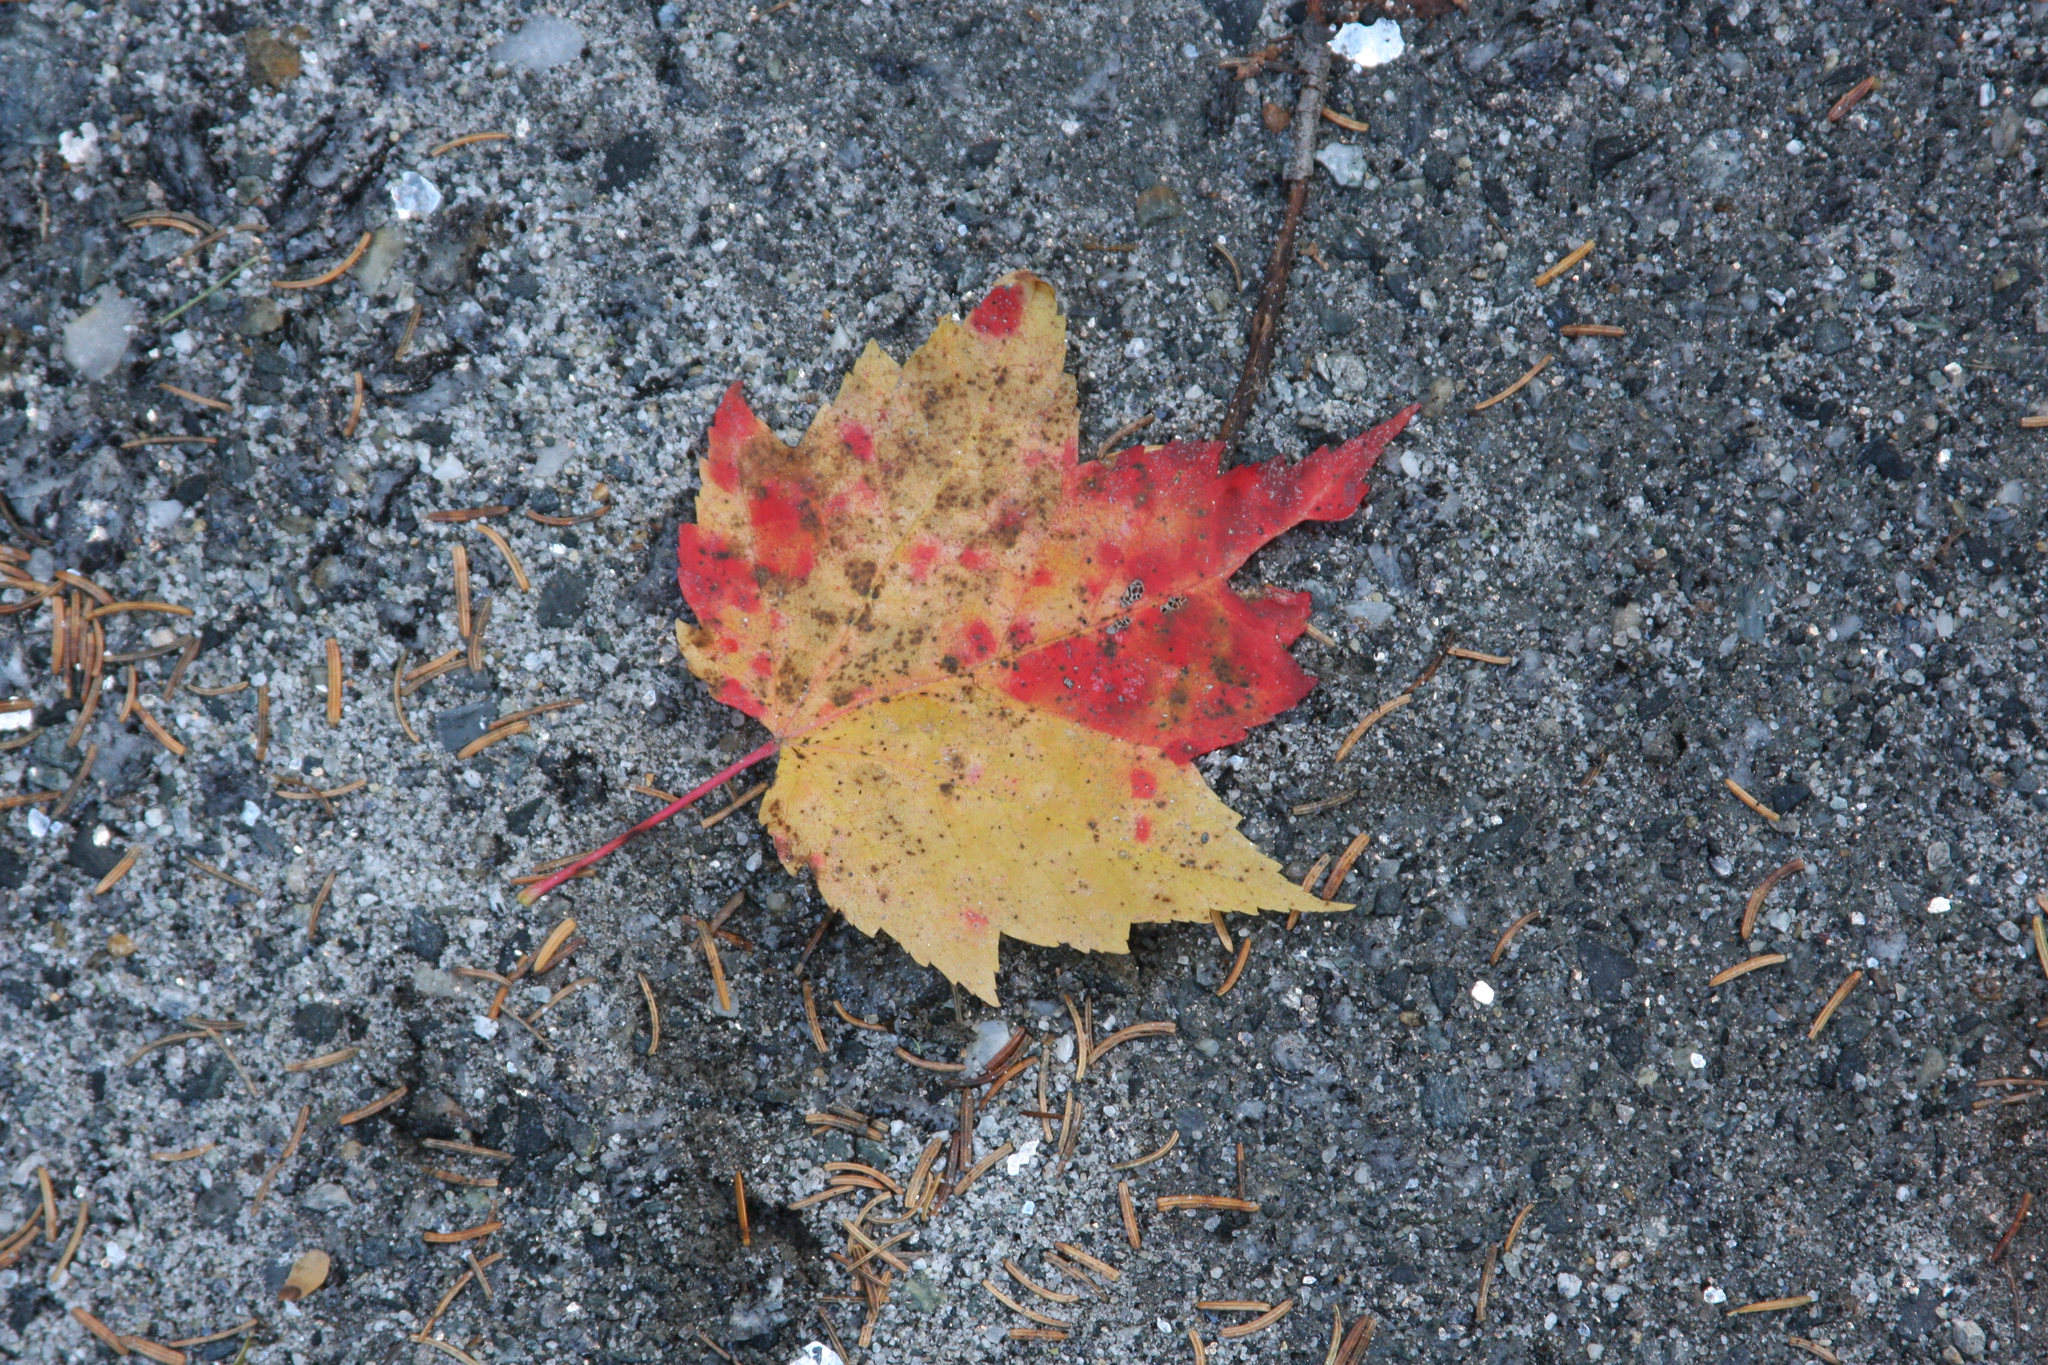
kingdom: Plantae
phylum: Tracheophyta
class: Magnoliopsida
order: Sapindales
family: Sapindaceae
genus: Acer
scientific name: Acer rubrum
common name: Red maple
